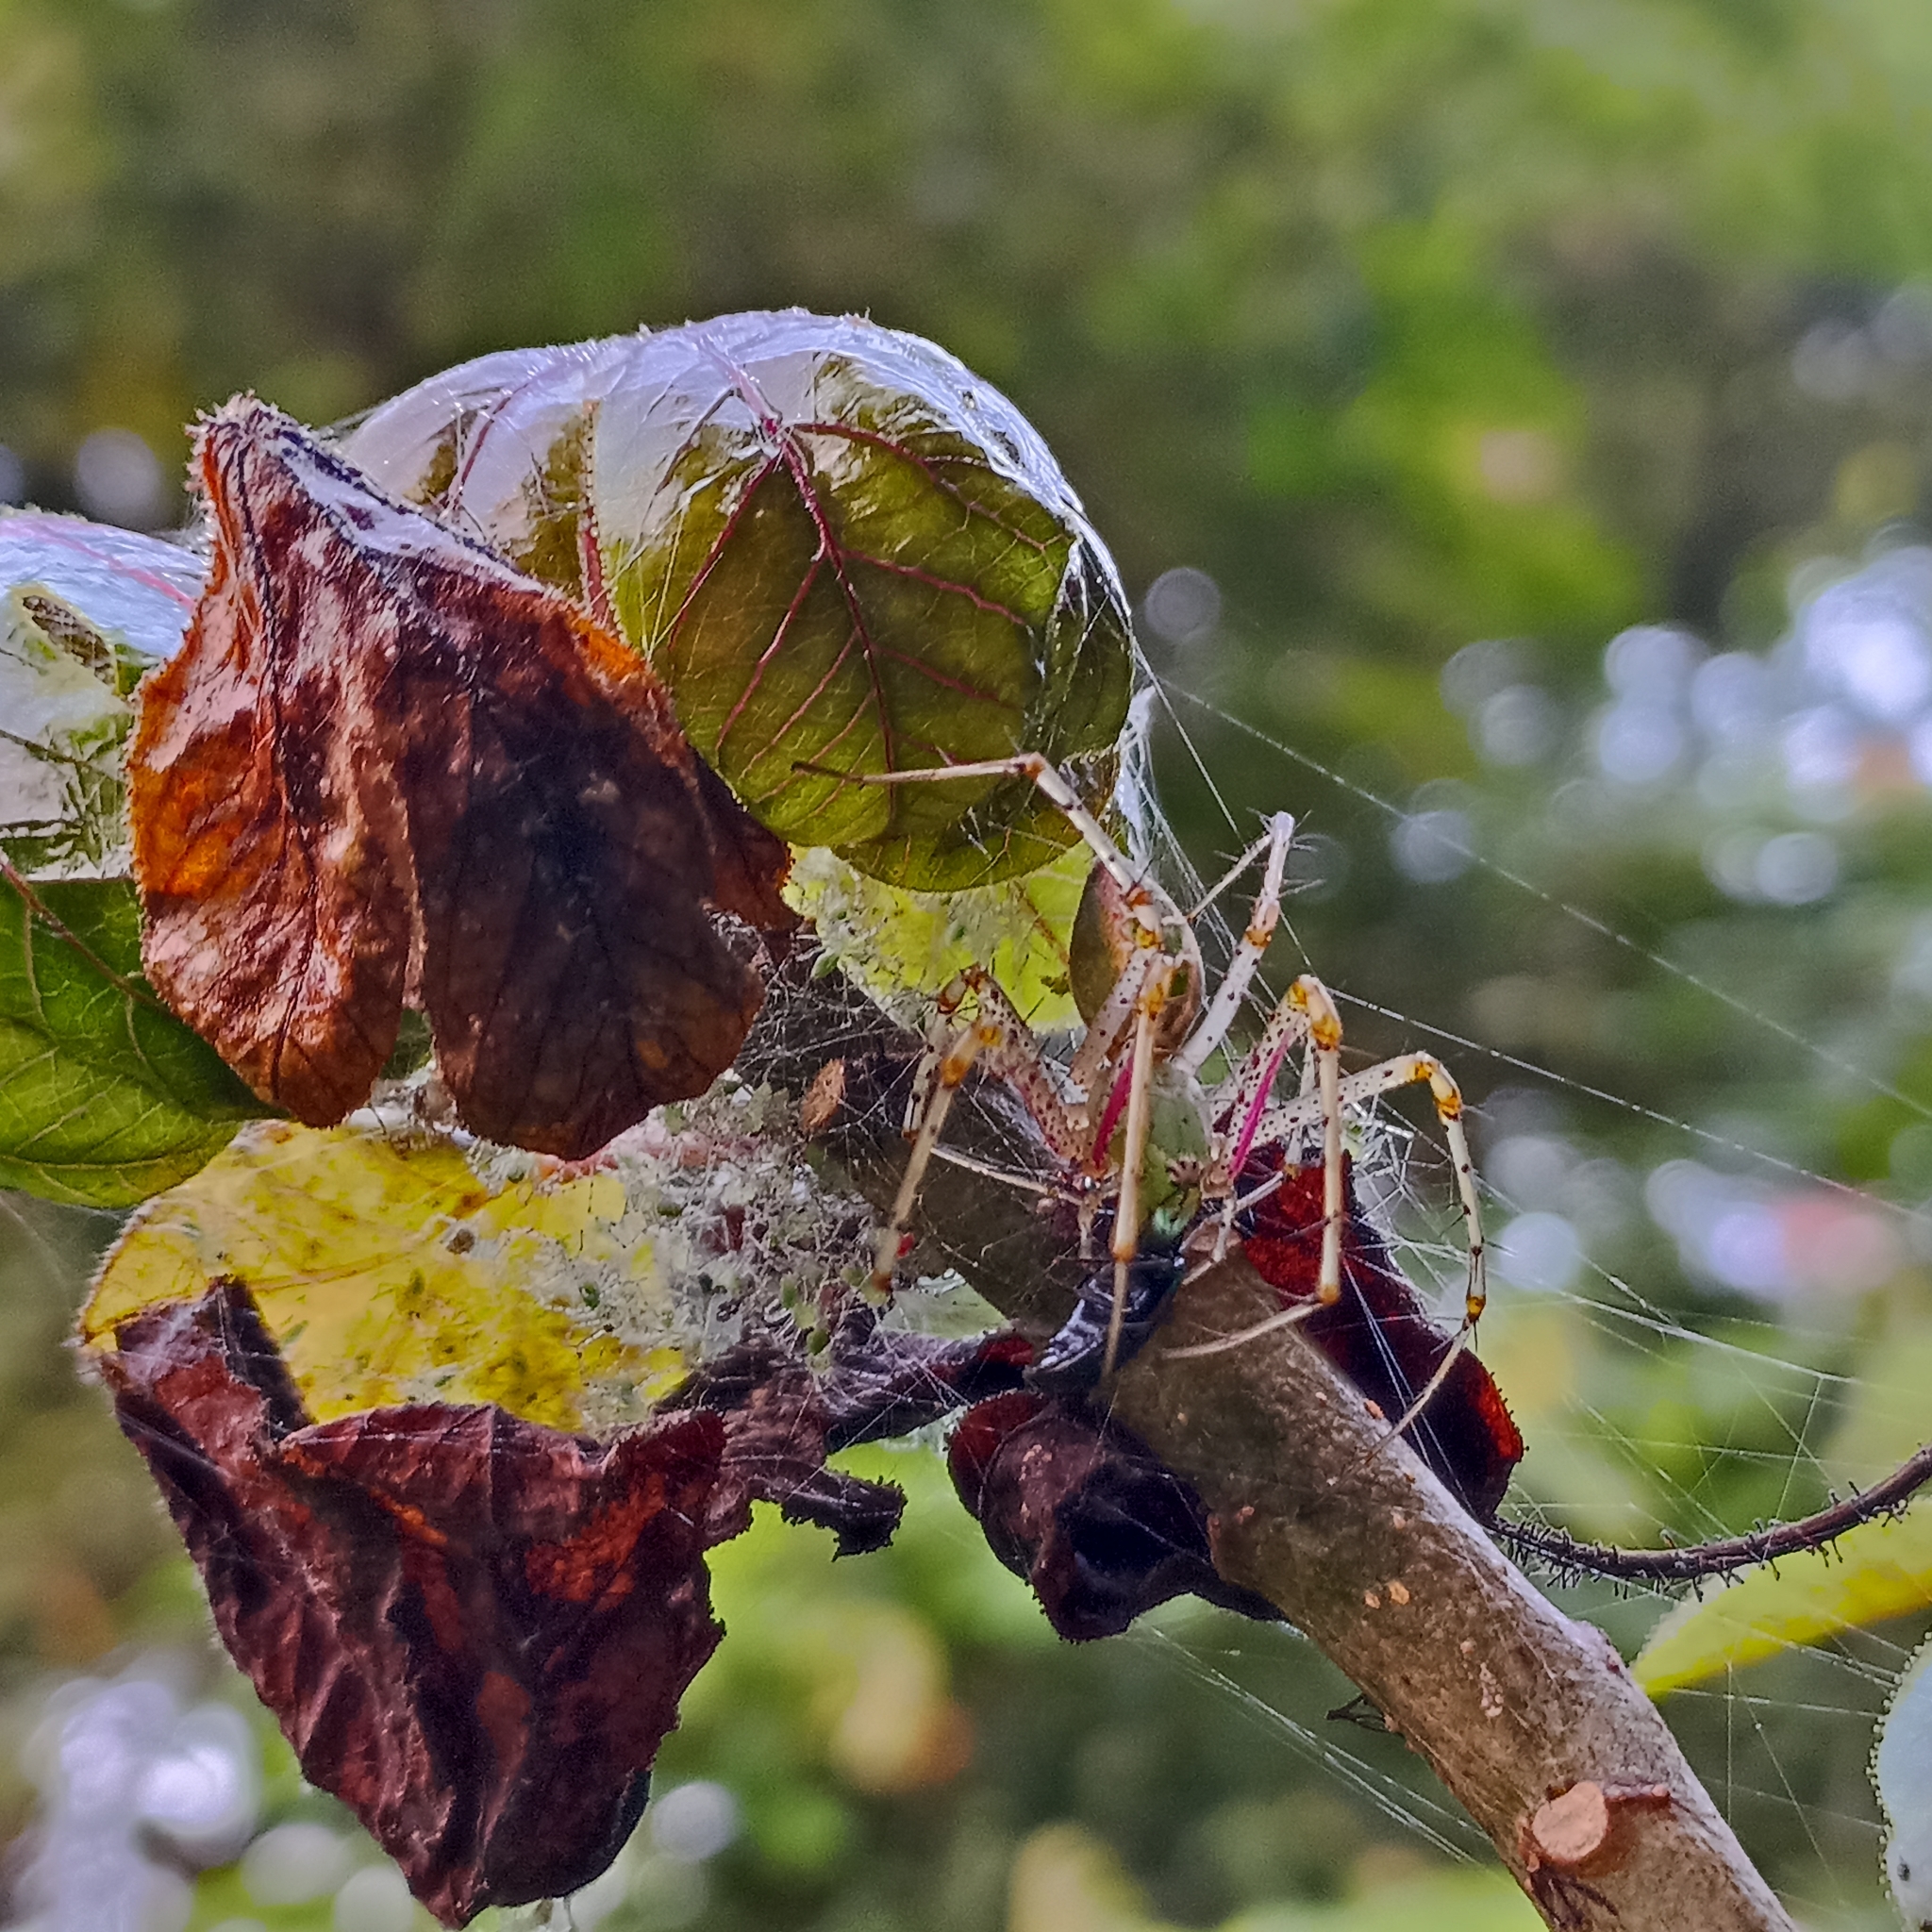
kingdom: Animalia
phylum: Arthropoda
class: Arachnida
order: Araneae
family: Oxyopidae
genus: Peucetia
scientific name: Peucetia viridana
